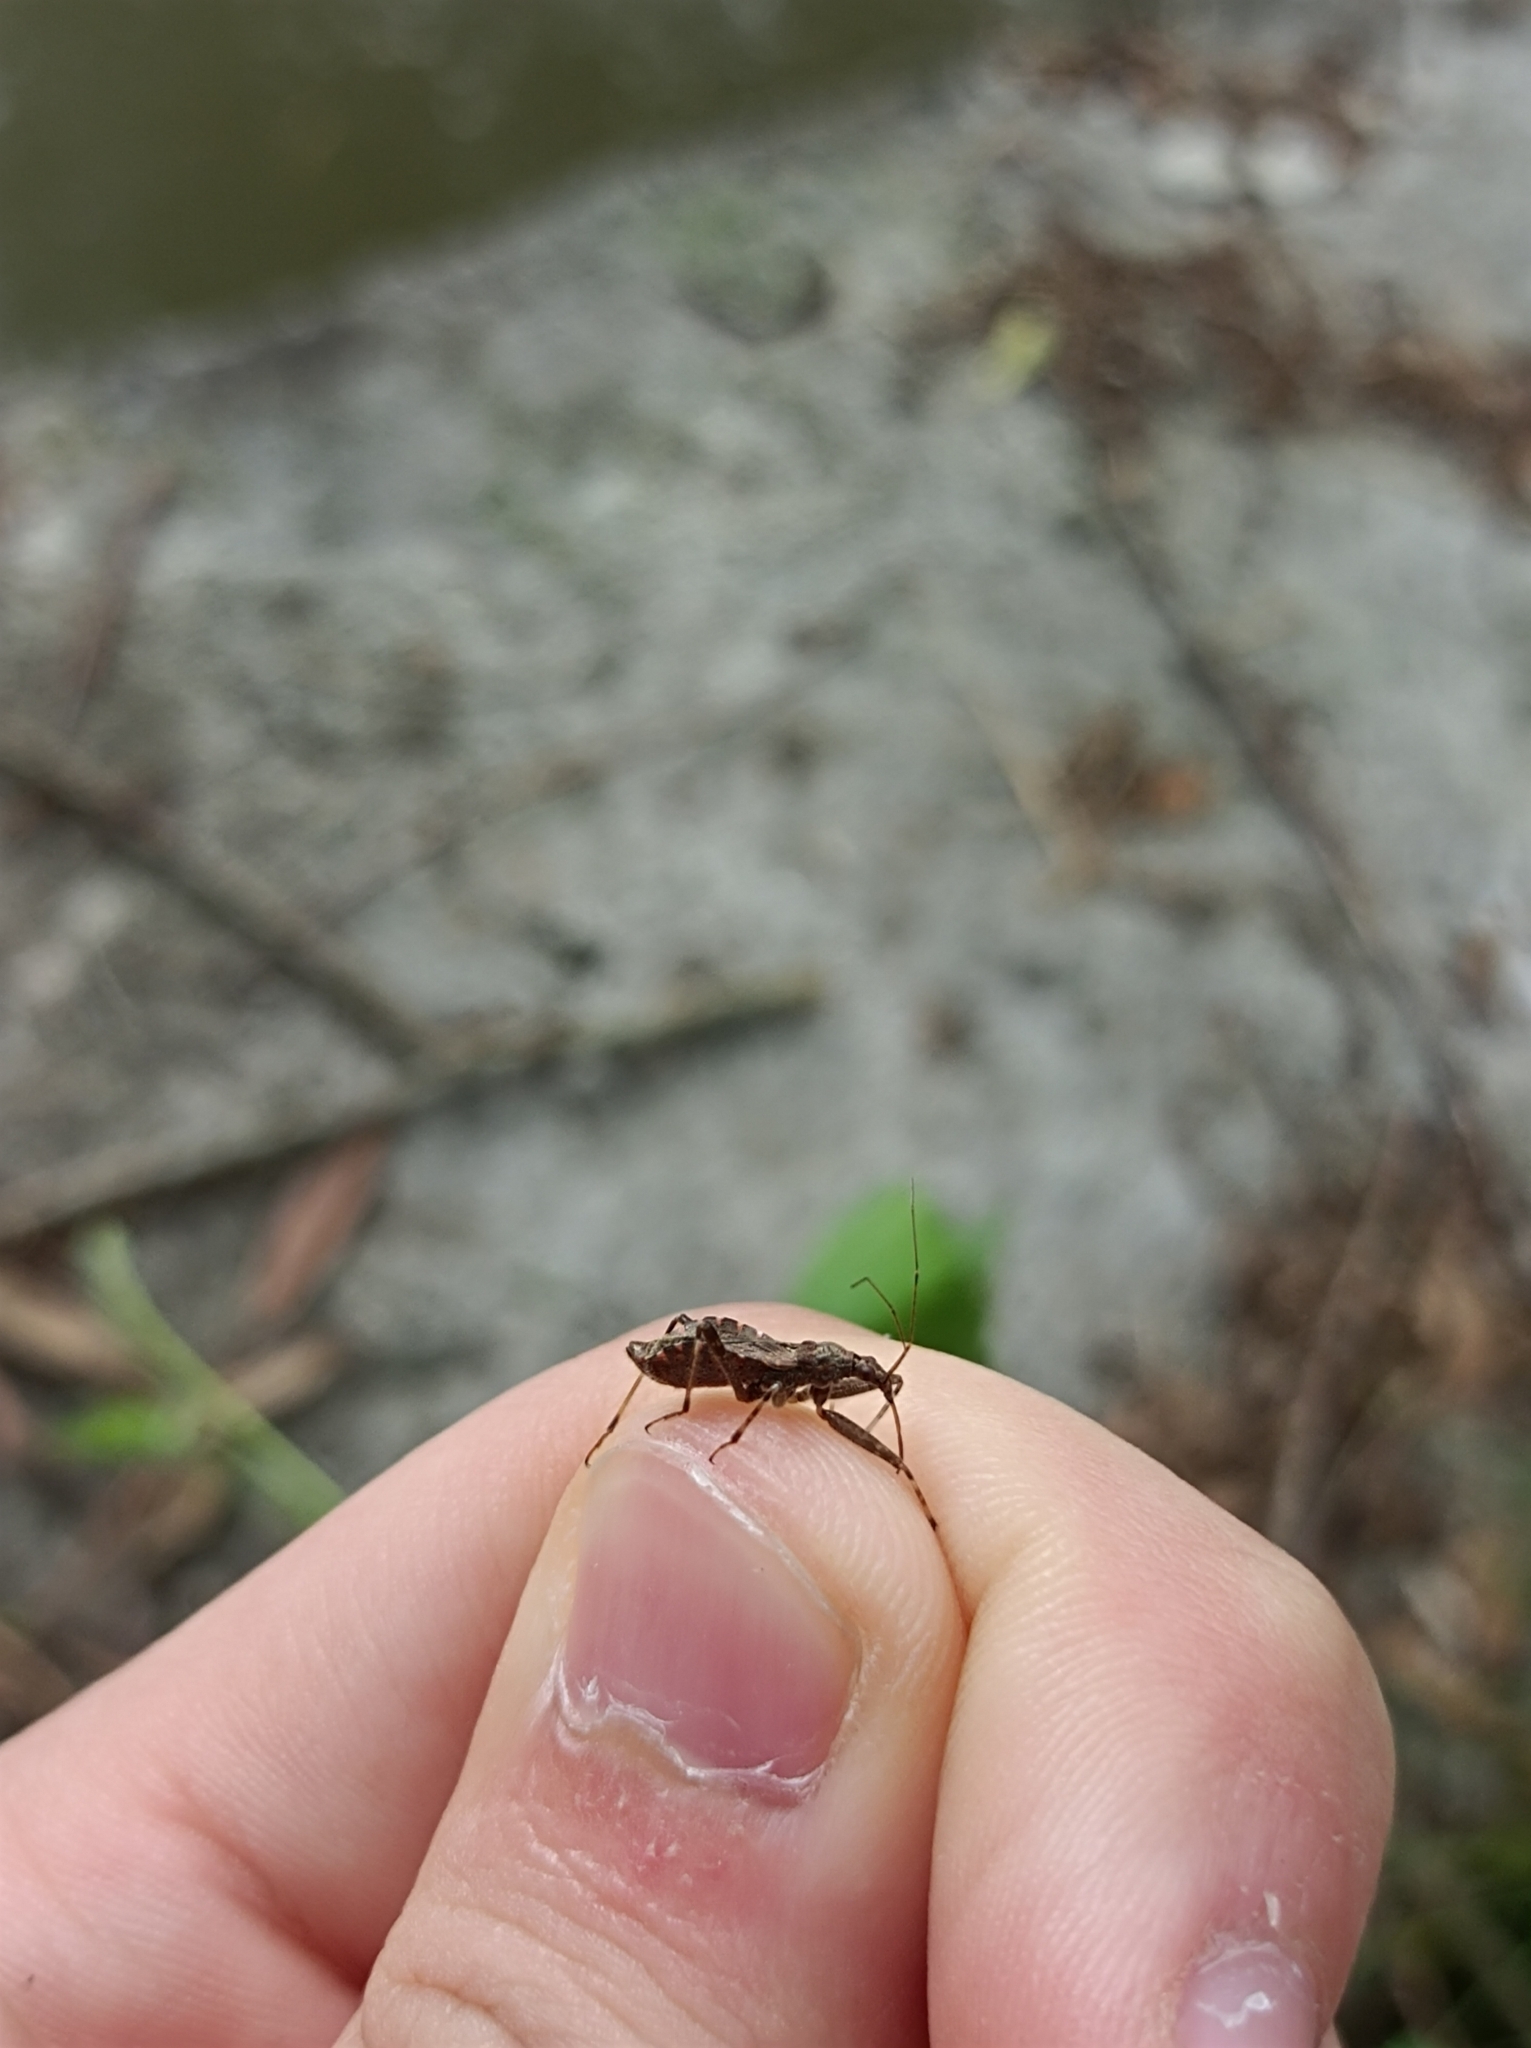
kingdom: Animalia
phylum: Arthropoda
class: Insecta
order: Hemiptera
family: Nabidae
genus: Himacerus
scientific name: Himacerus apterus
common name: Tree damsel bug
